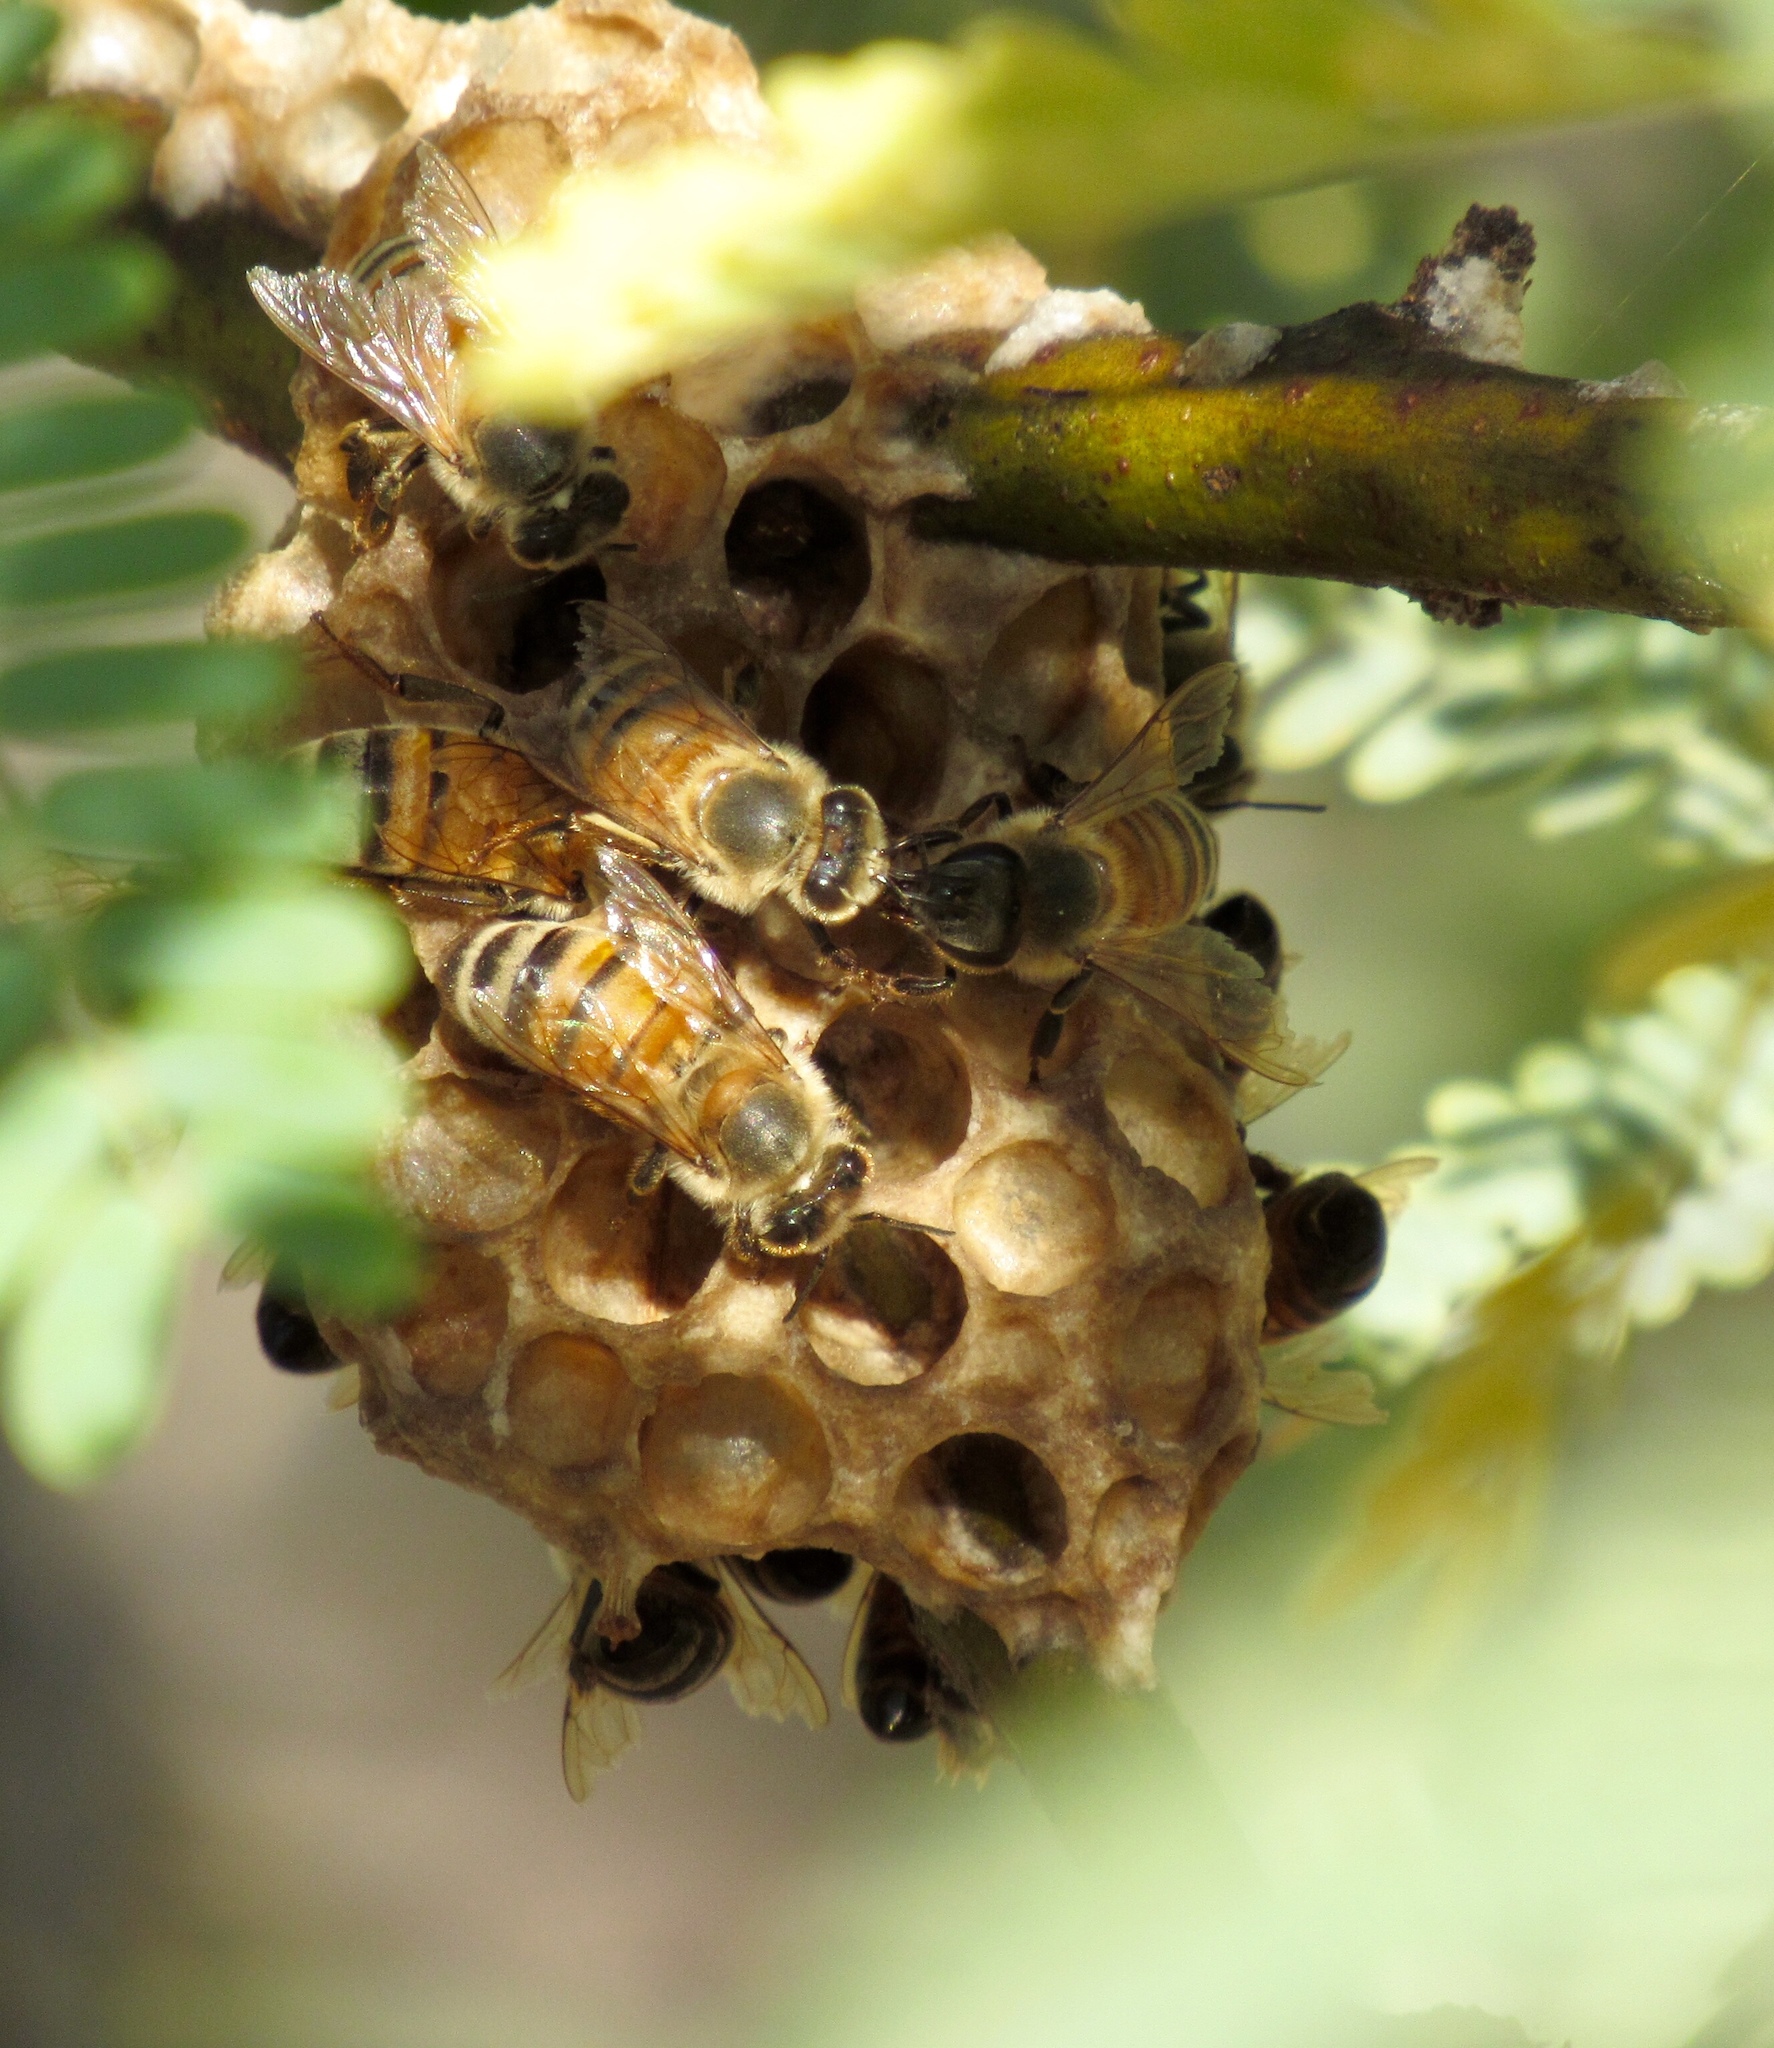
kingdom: Animalia
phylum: Arthropoda
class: Insecta
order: Hymenoptera
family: Apidae
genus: Apis
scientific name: Apis mellifera
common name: Honey bee
